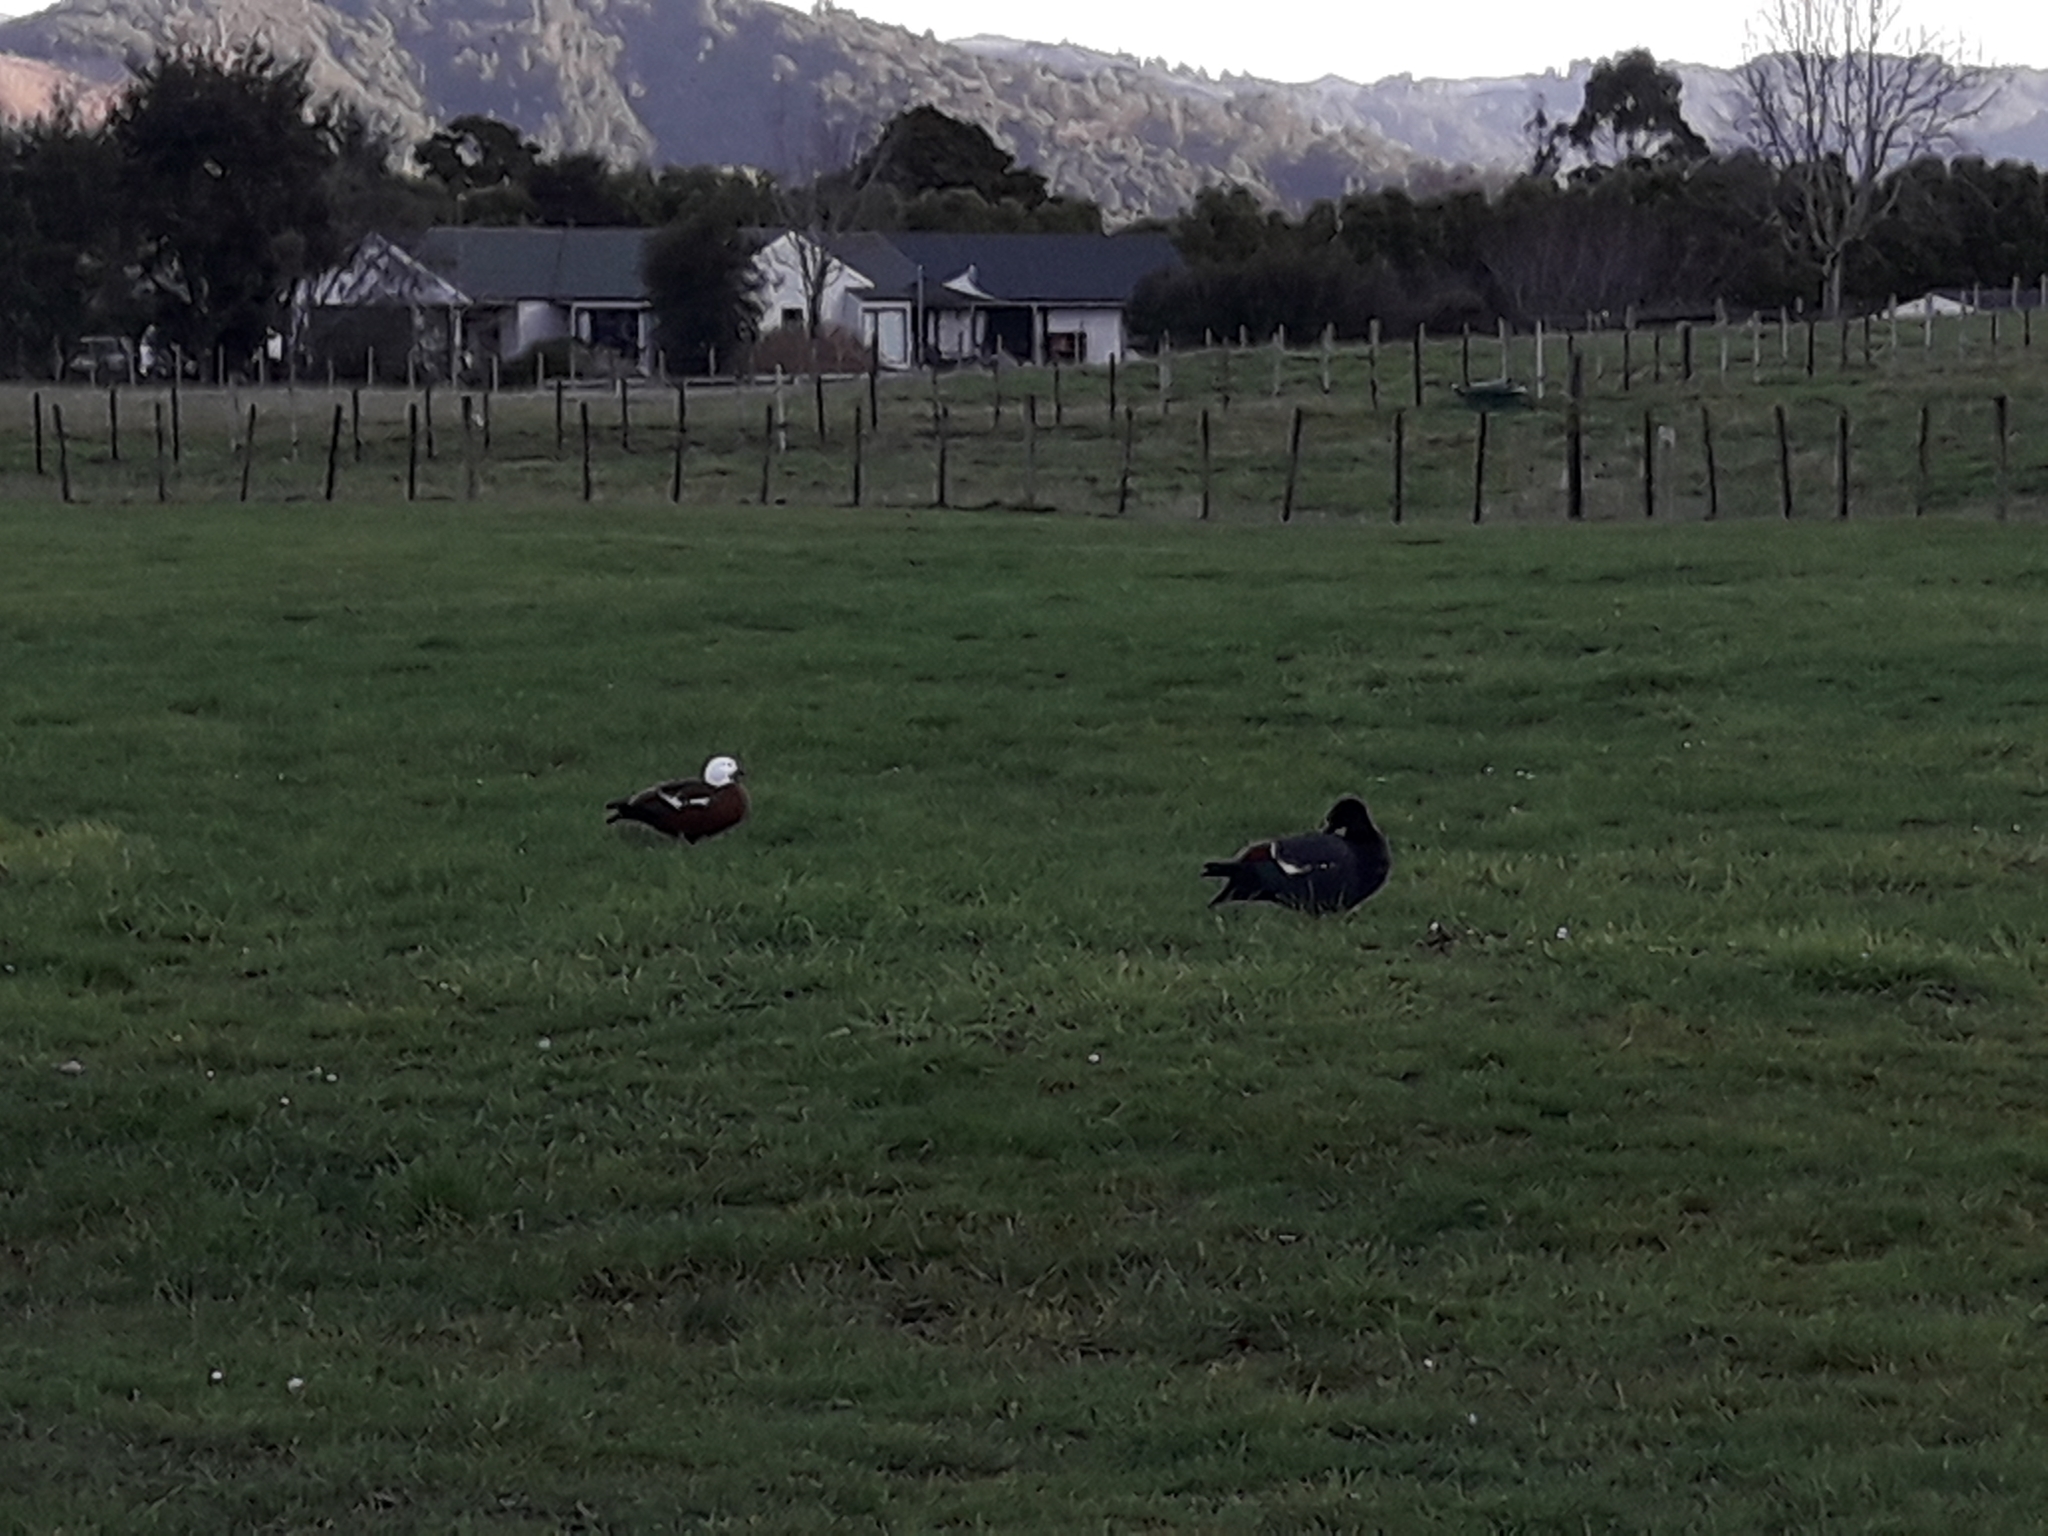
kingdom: Animalia
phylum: Chordata
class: Aves
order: Anseriformes
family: Anatidae
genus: Tadorna
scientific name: Tadorna variegata
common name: Paradise shelduck
